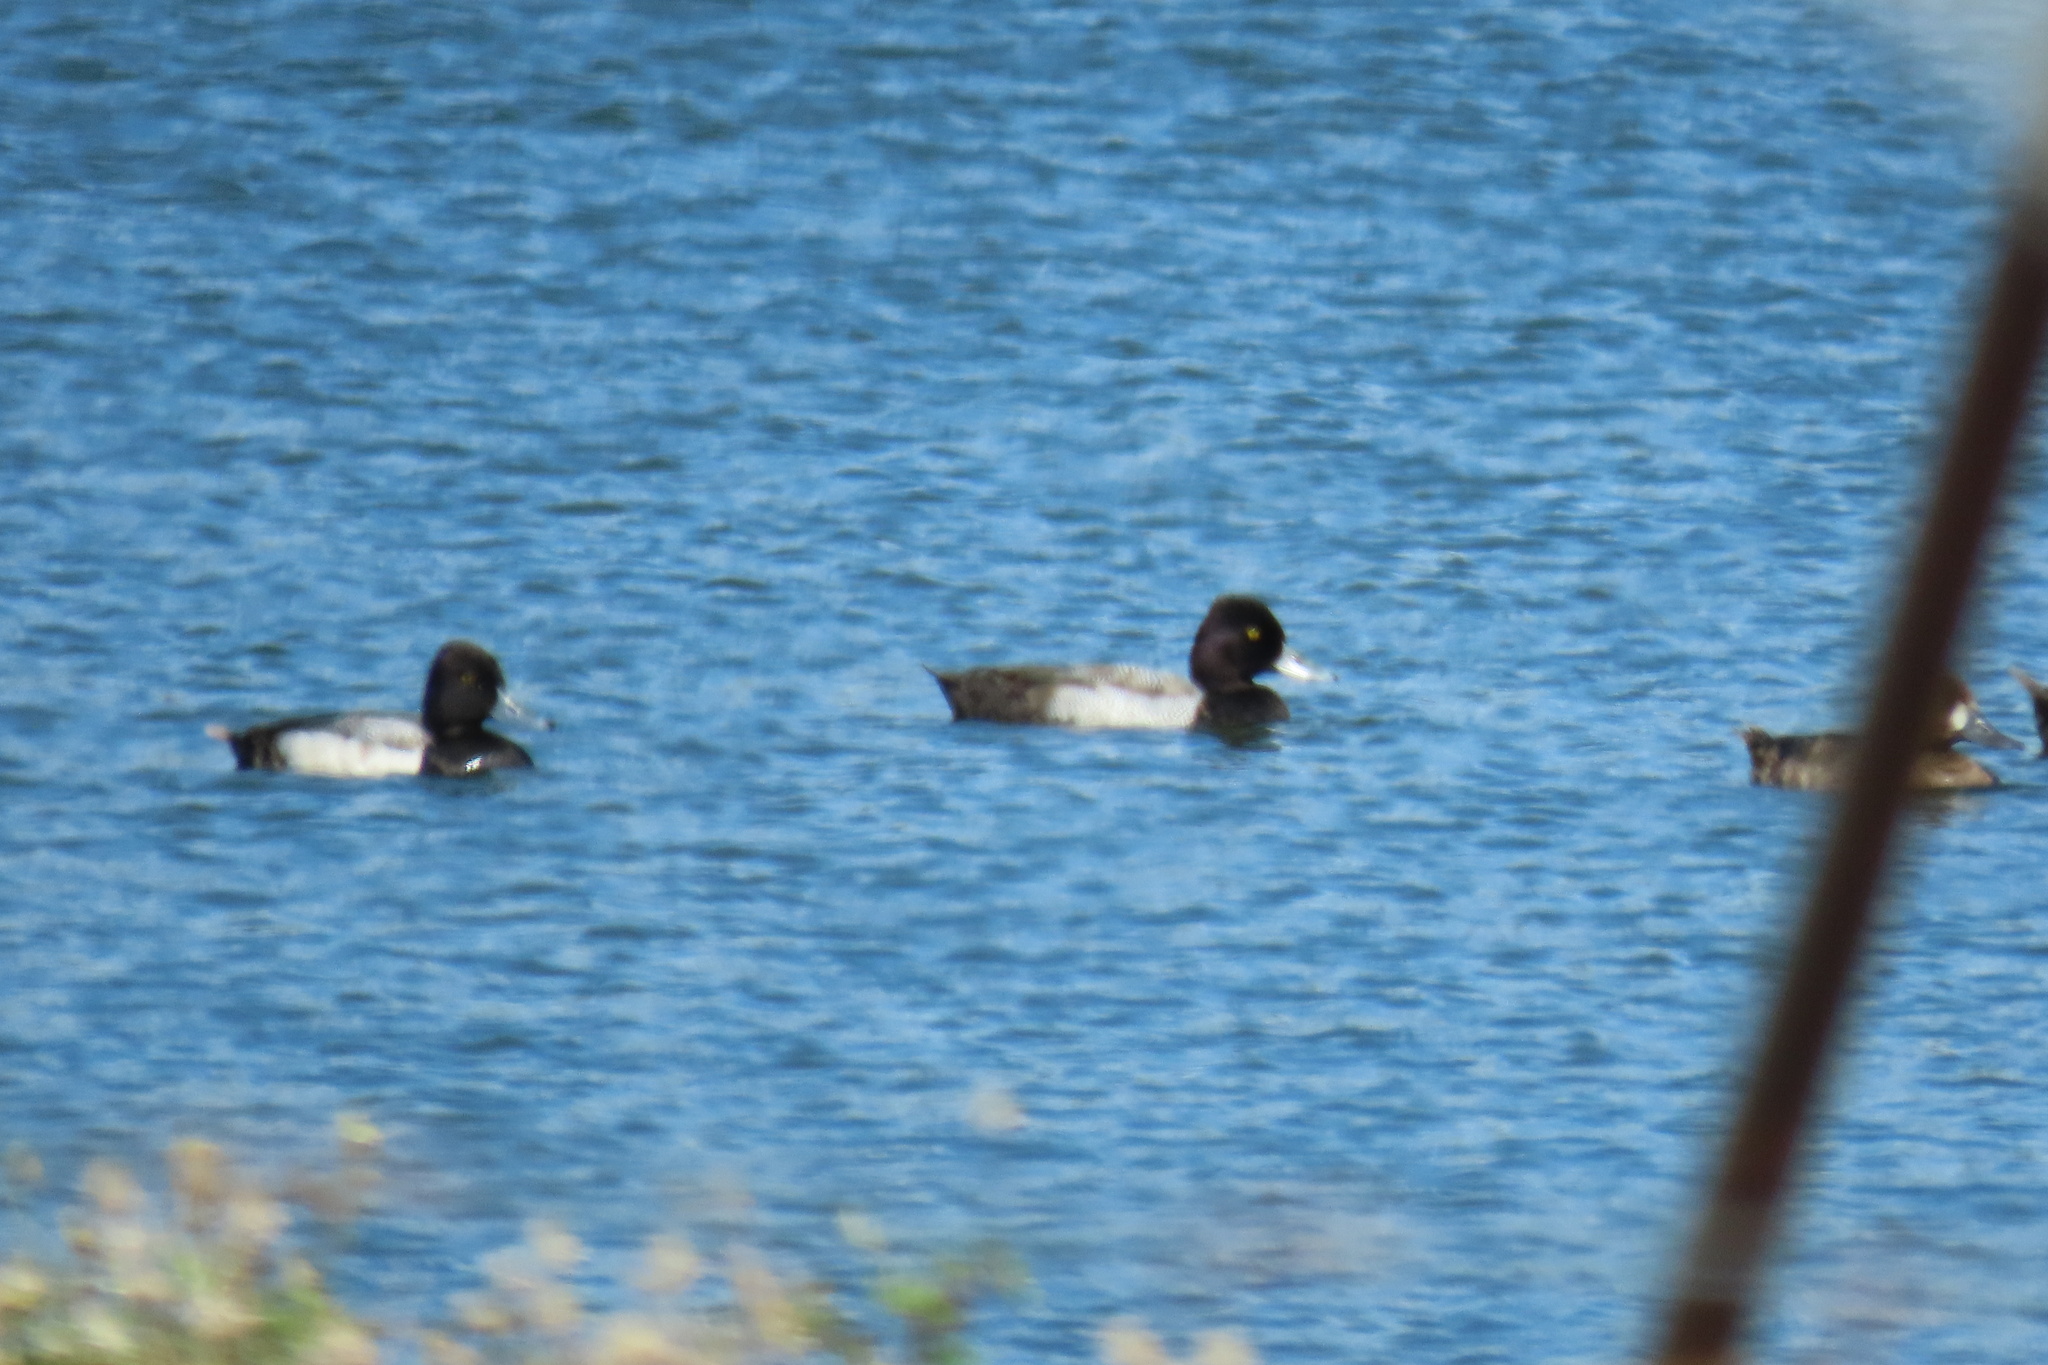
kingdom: Animalia
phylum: Chordata
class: Aves
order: Anseriformes
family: Anatidae
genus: Aythya
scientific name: Aythya affinis
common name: Lesser scaup
